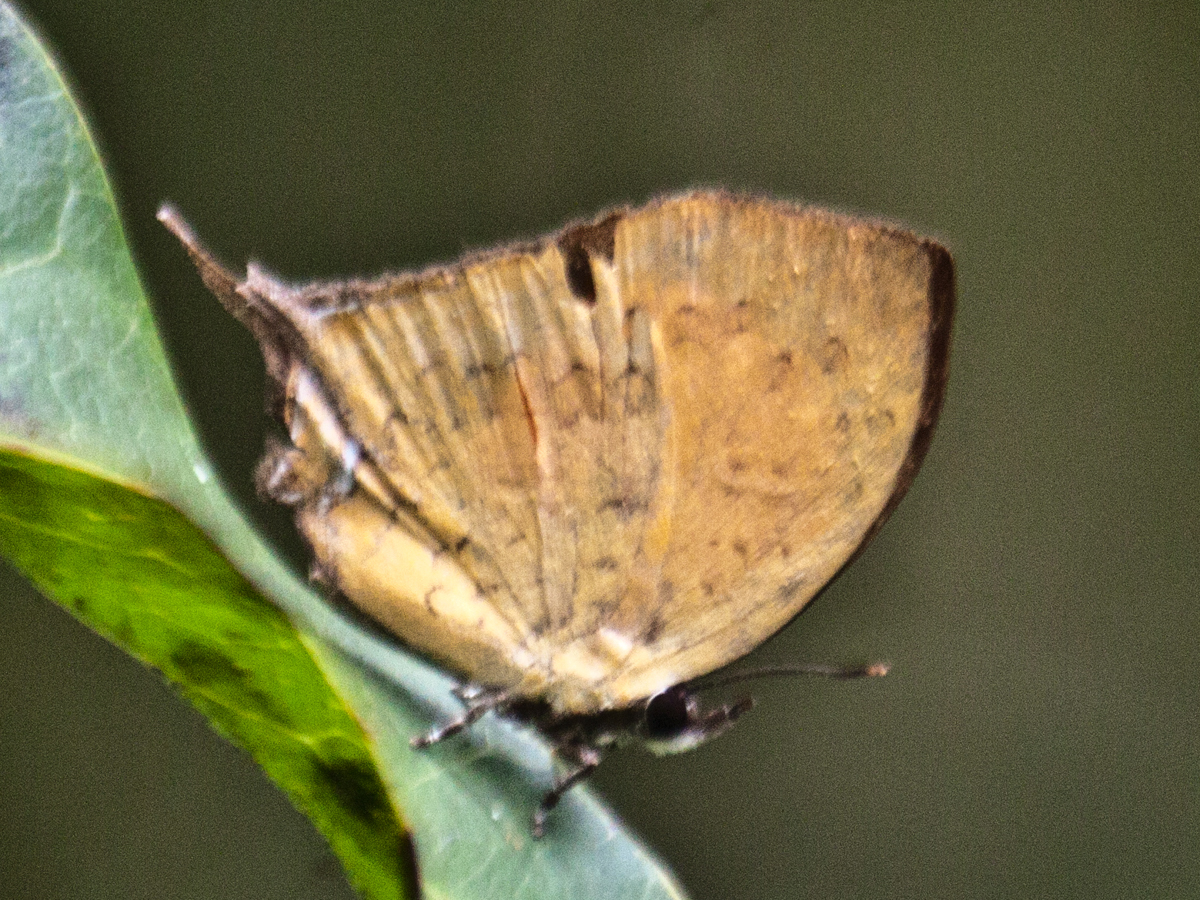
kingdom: Animalia
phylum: Arthropoda
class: Insecta
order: Lepidoptera
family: Lycaenidae
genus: Yasoda
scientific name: Yasoda tripunctata
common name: Branded yamfly
